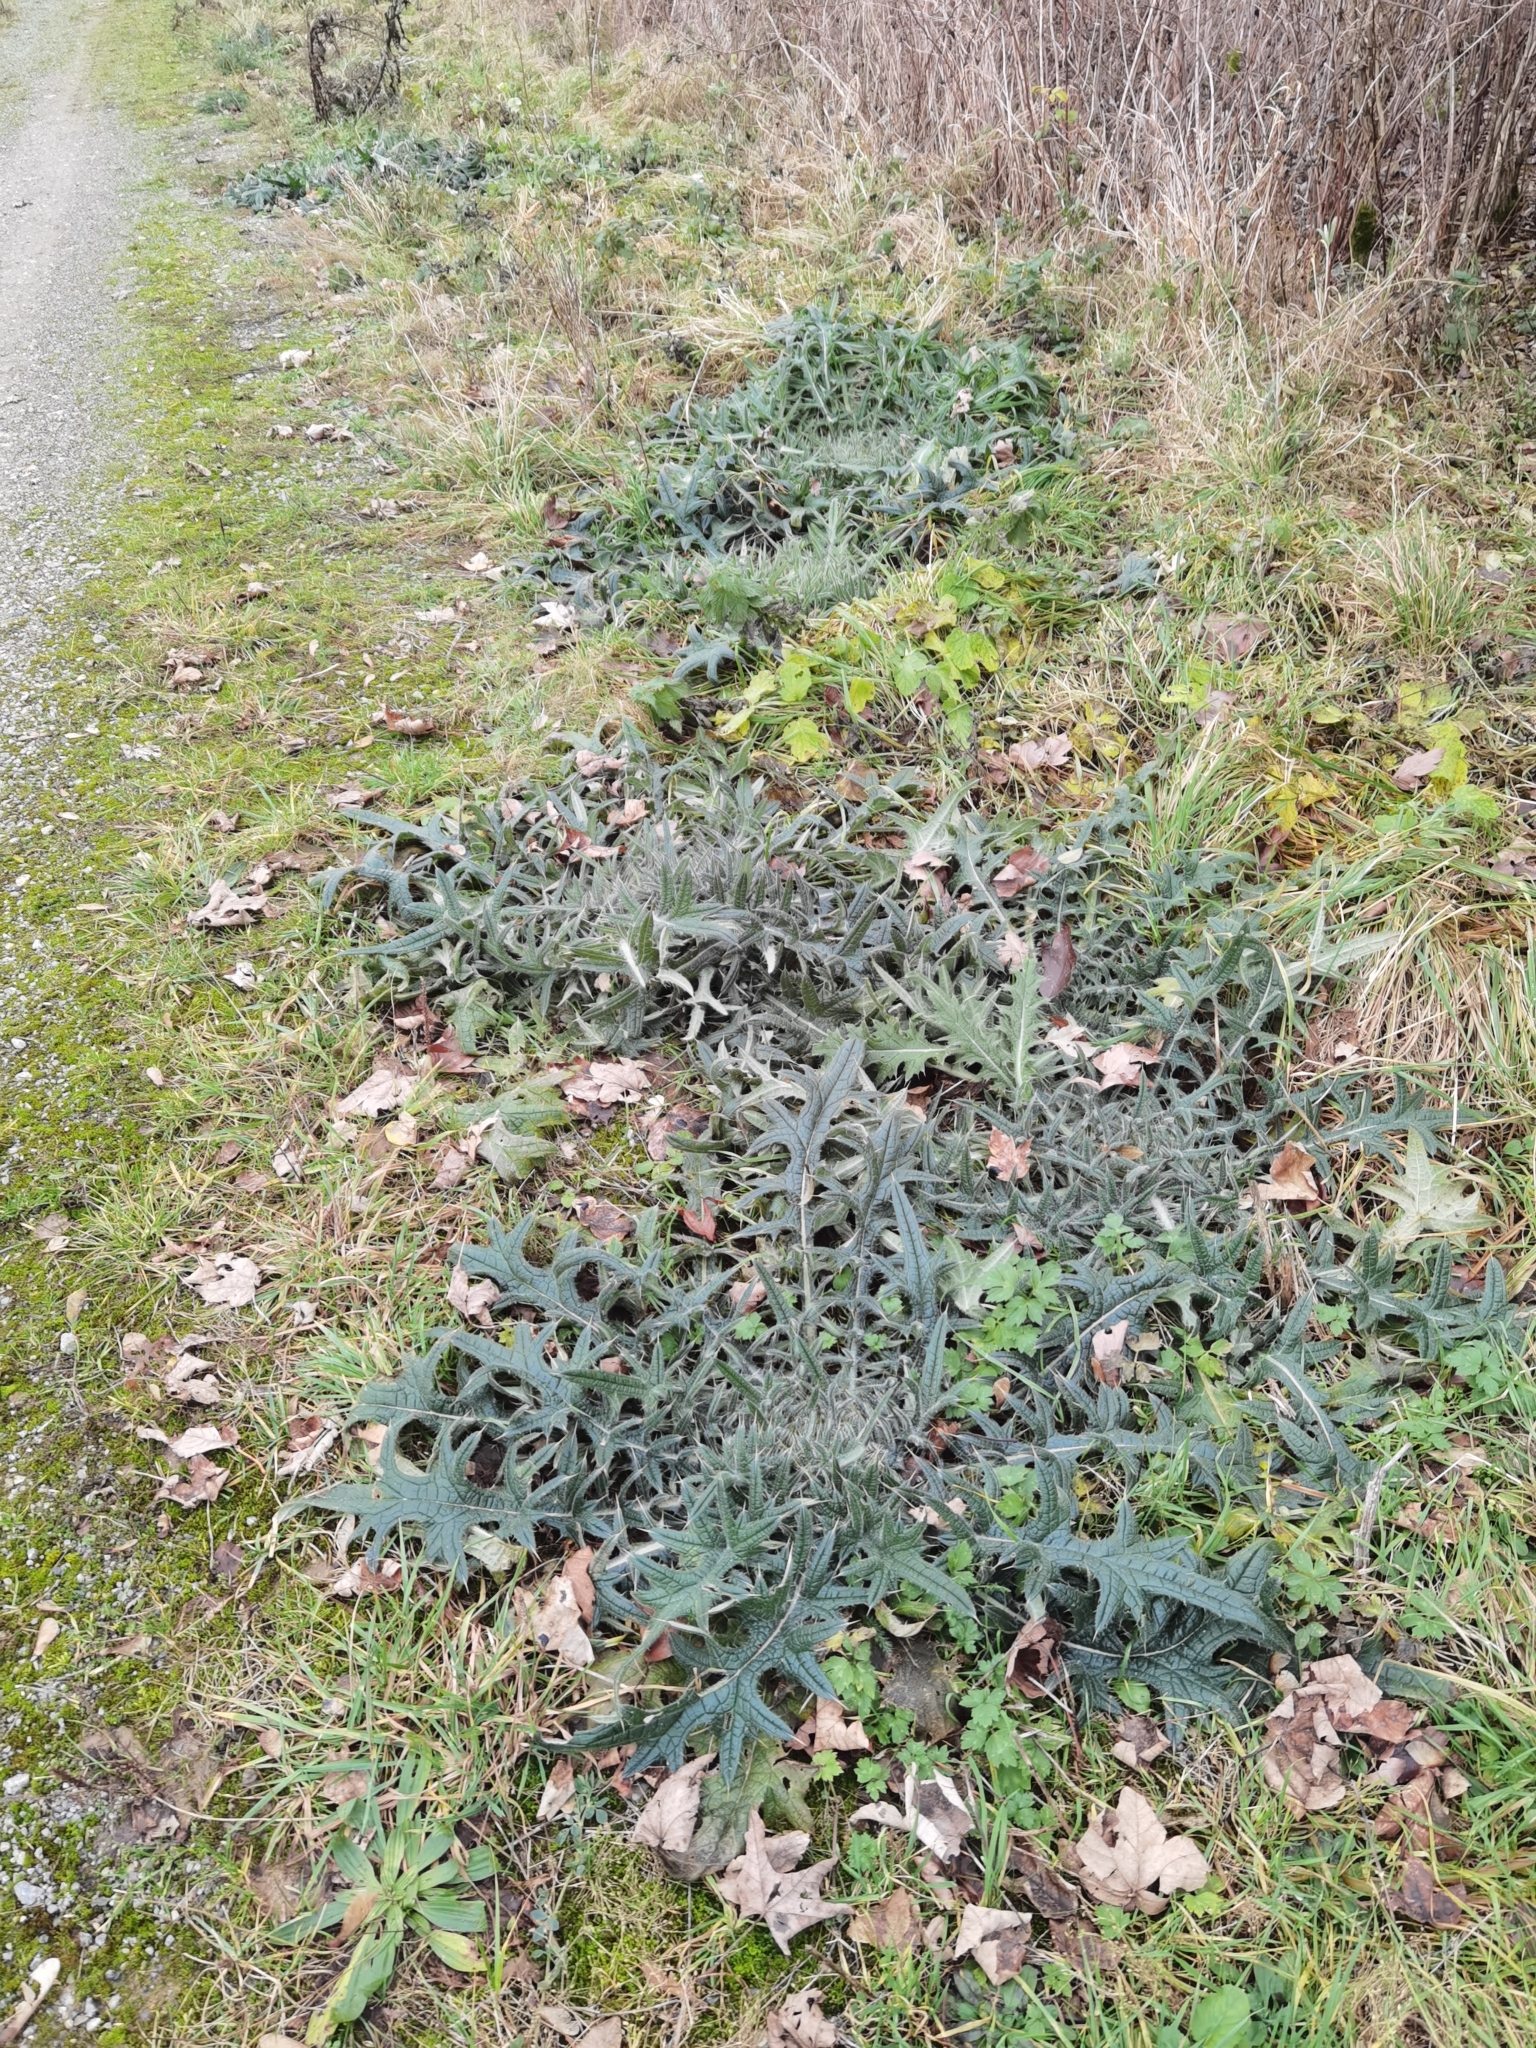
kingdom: Plantae
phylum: Tracheophyta
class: Magnoliopsida
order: Asterales
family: Asteraceae
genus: Cirsium
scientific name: Cirsium vulgare
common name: Bull thistle
